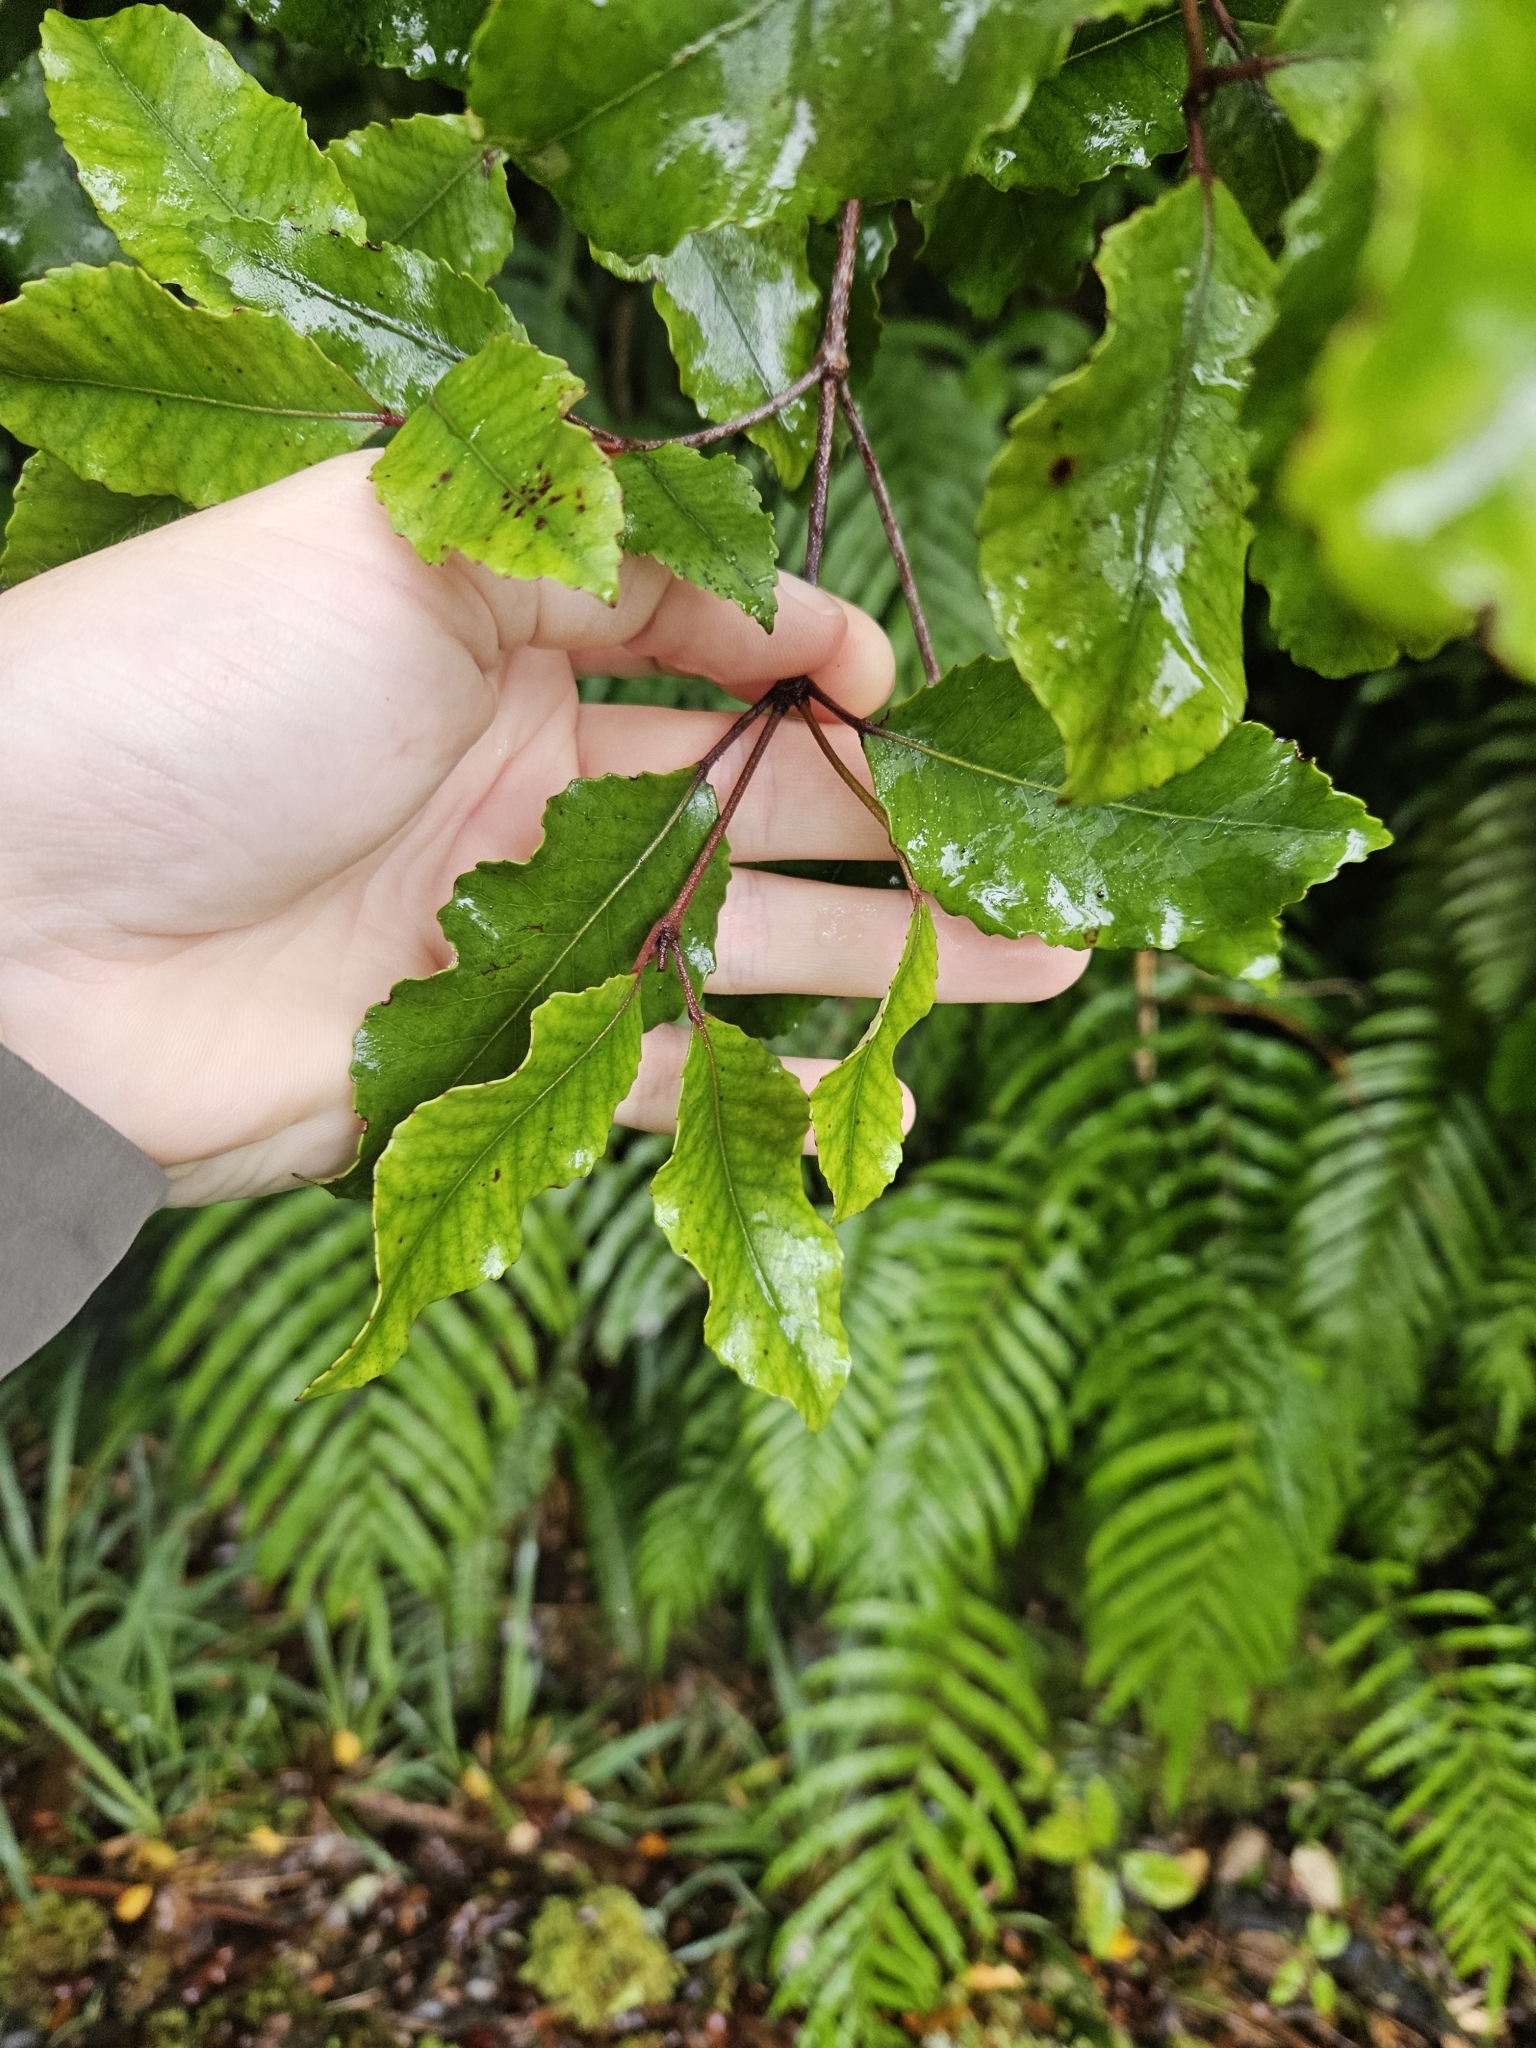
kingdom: Plantae
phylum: Tracheophyta
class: Magnoliopsida
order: Oxalidales
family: Cunoniaceae
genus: Pterophylla
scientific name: Pterophylla racemosa
